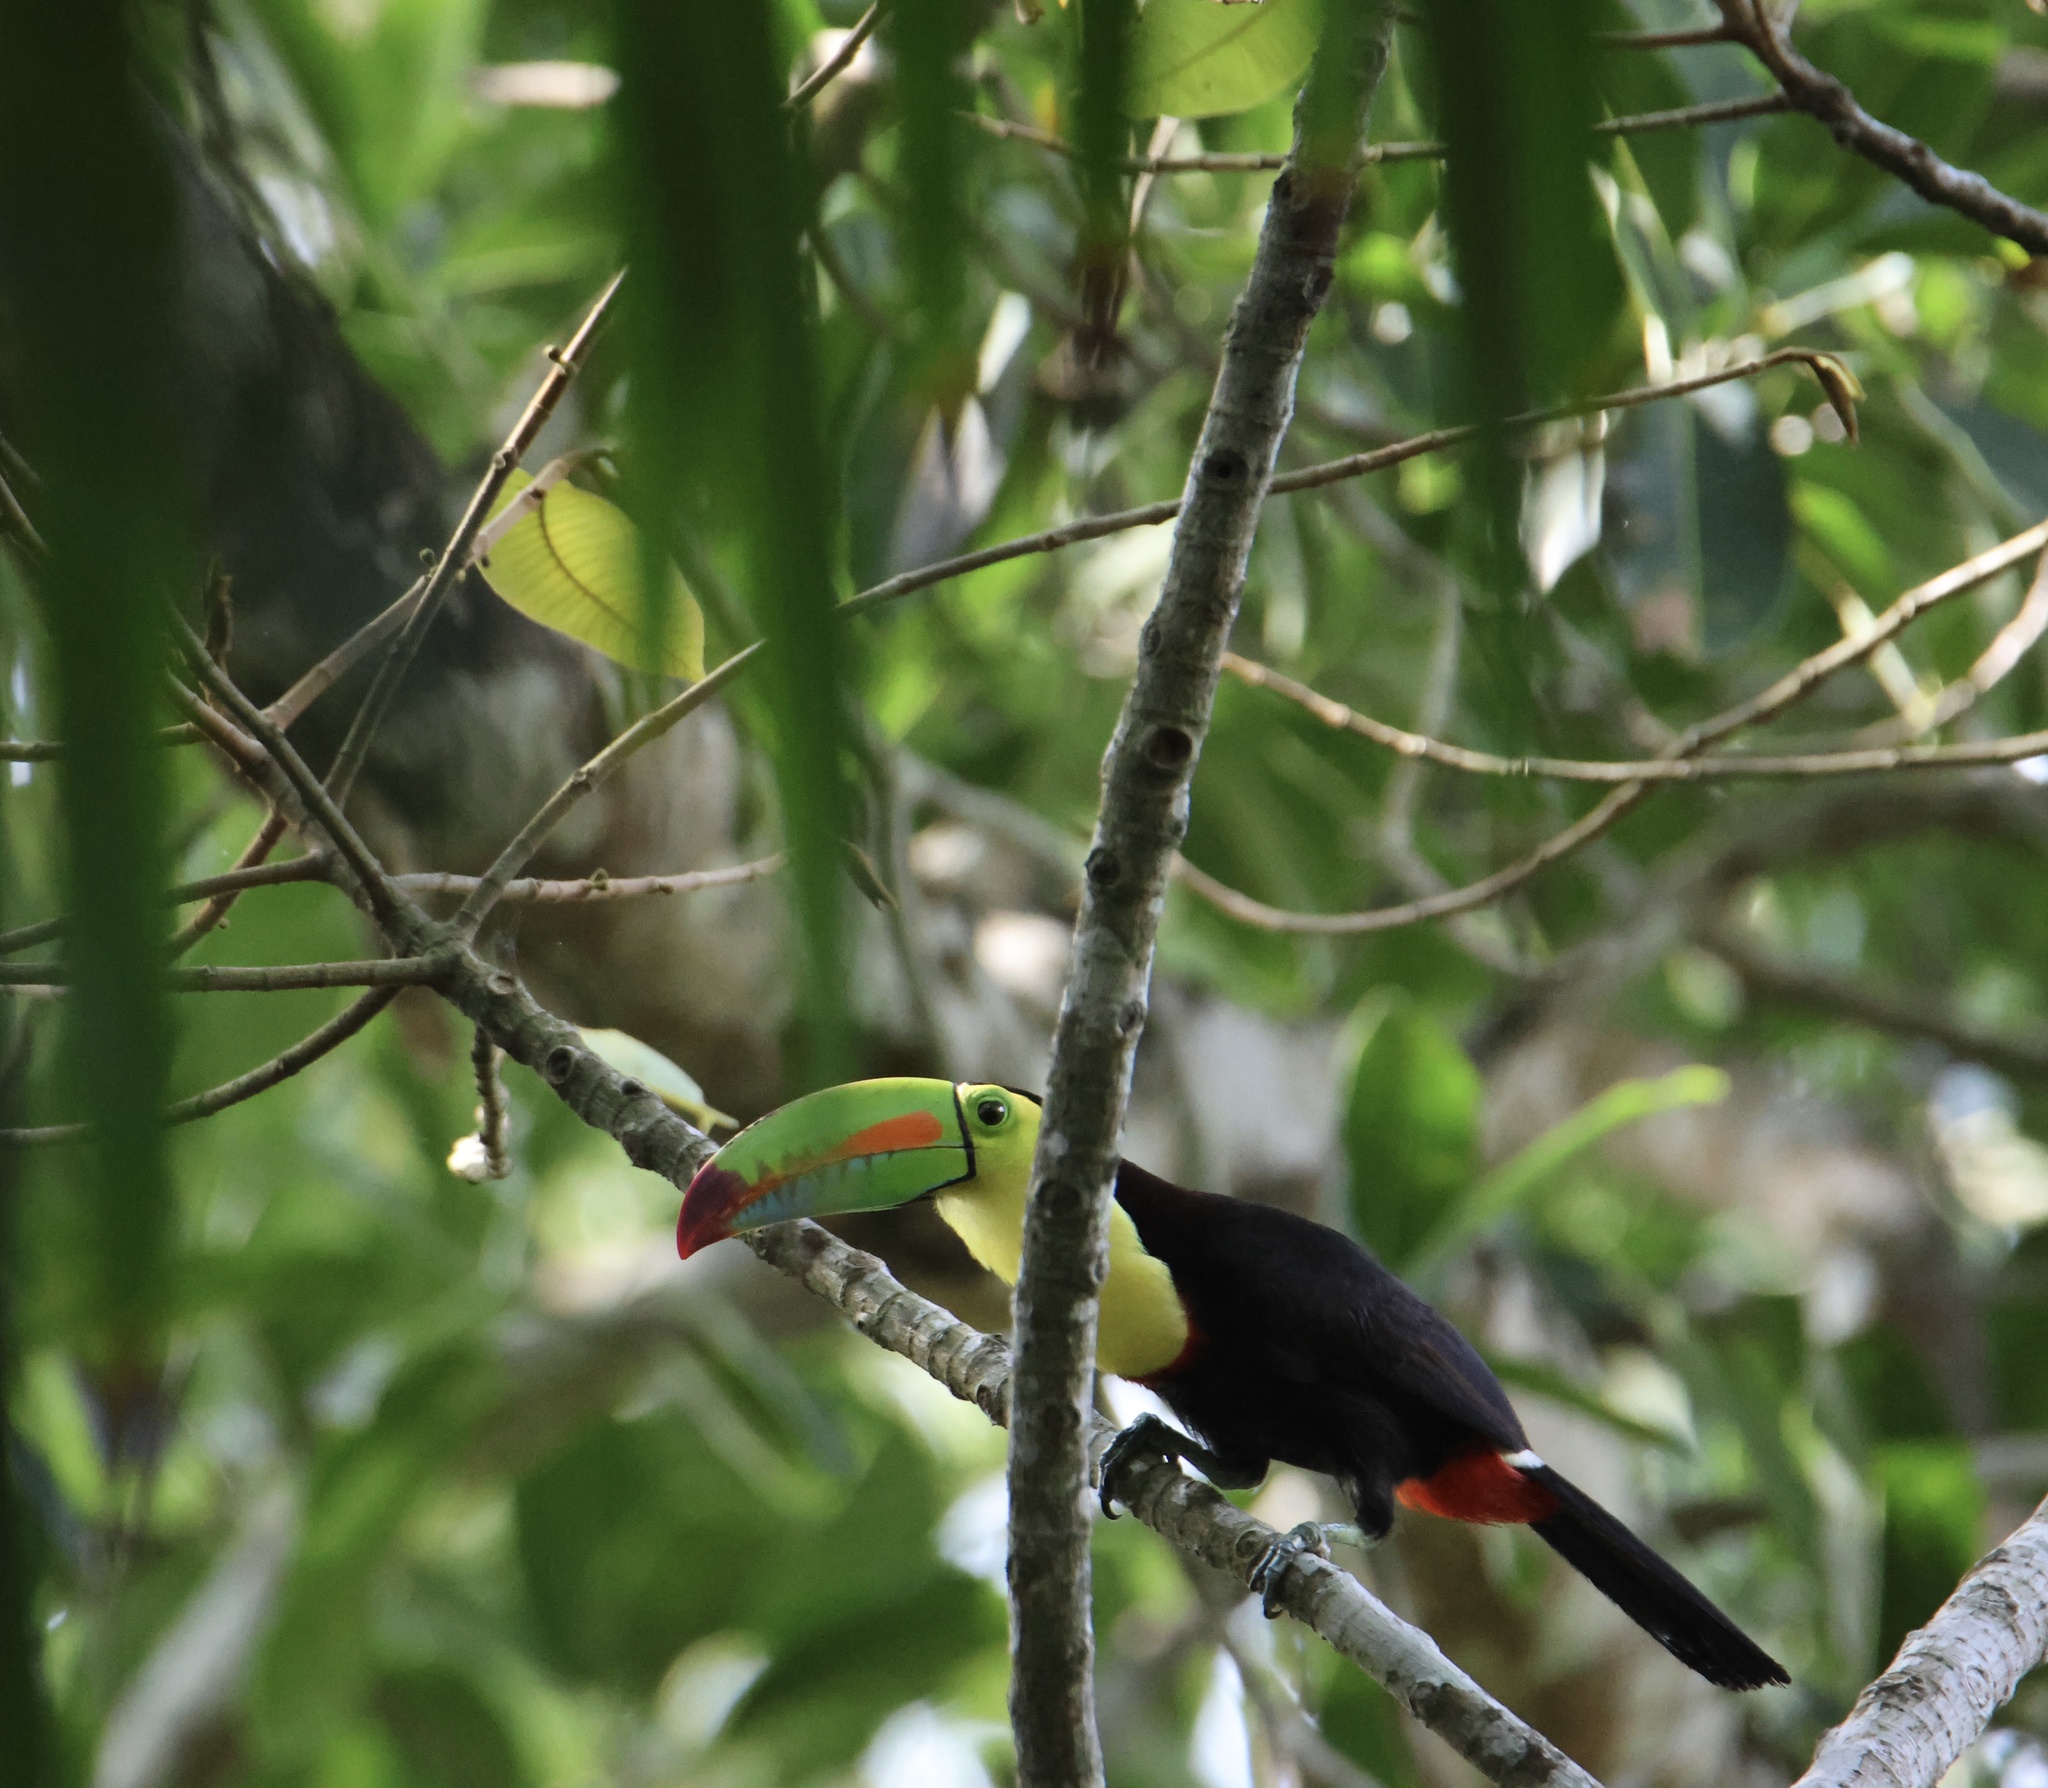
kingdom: Animalia
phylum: Chordata
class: Aves
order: Piciformes
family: Ramphastidae
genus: Ramphastos
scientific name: Ramphastos sulfuratus
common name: Keel-billed toucan
